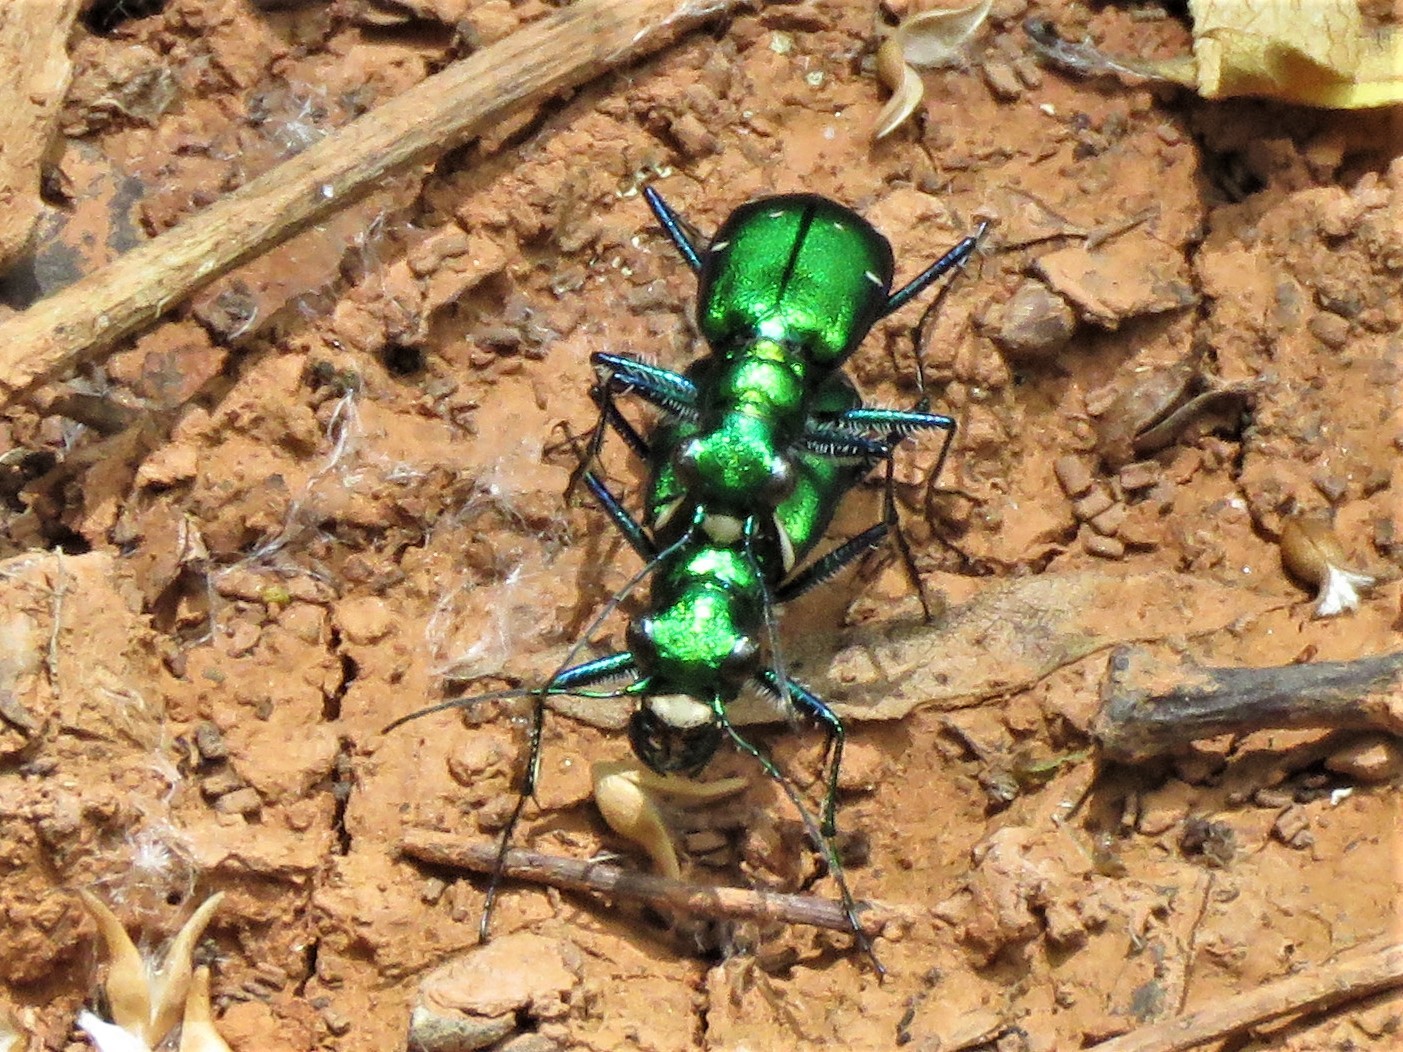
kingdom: Animalia
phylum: Arthropoda
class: Insecta
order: Coleoptera
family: Carabidae
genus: Cicindela
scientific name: Cicindela sexguttata
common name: Six-spotted tiger beetle
